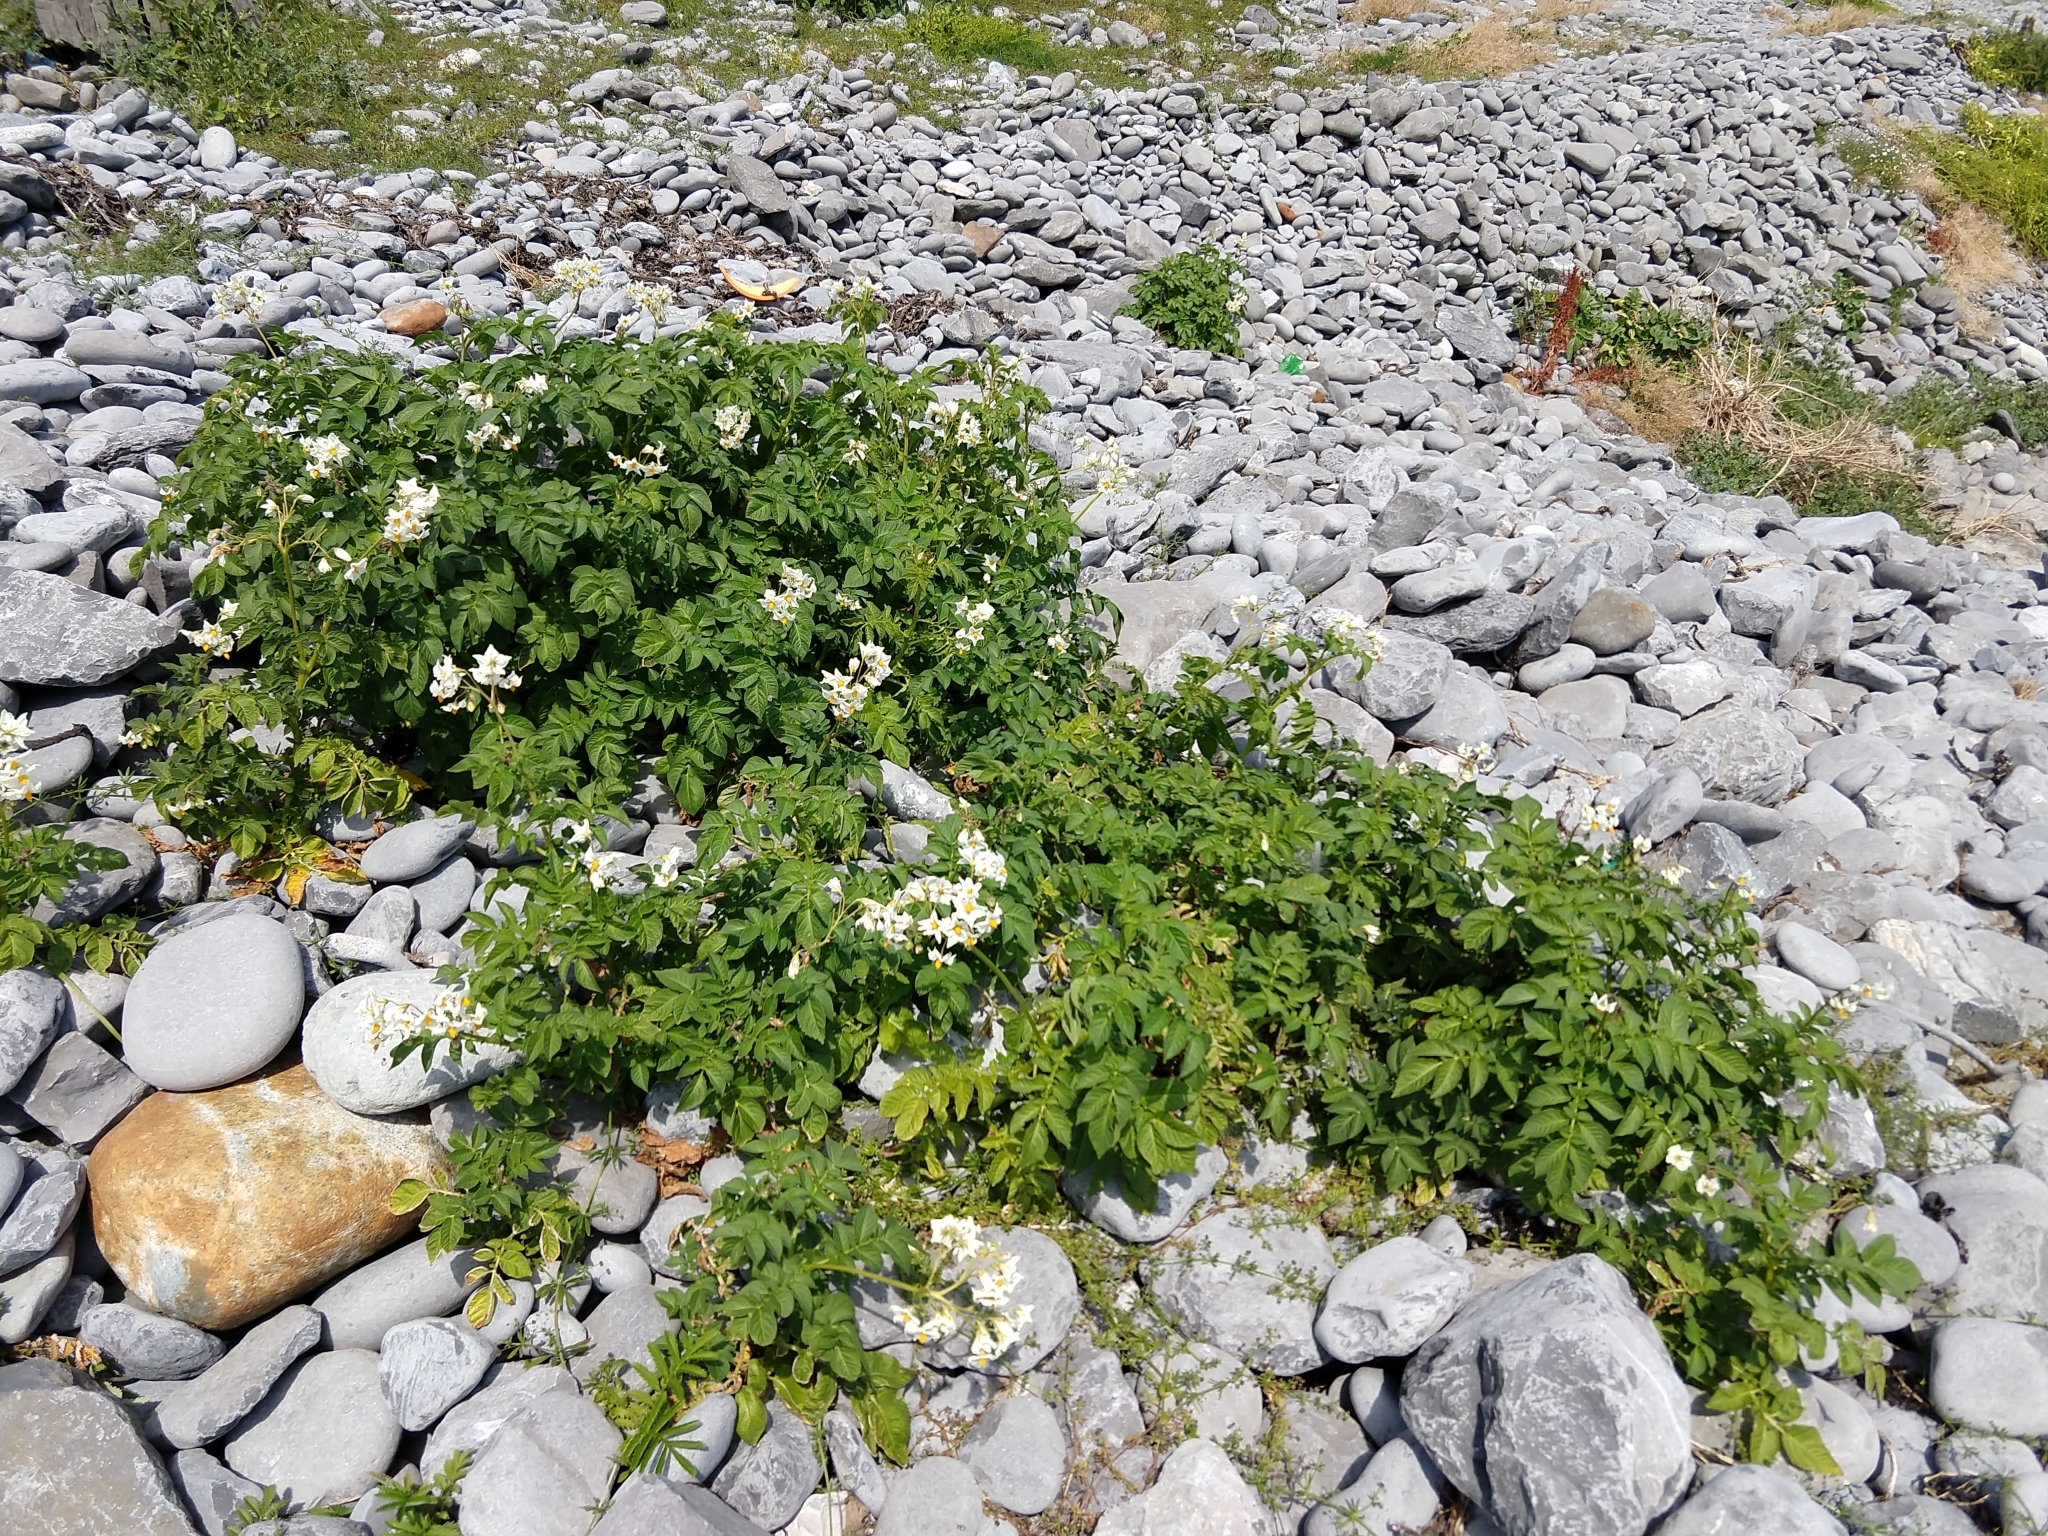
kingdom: Plantae
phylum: Tracheophyta
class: Magnoliopsida
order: Solanales
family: Solanaceae
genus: Solanum
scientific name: Solanum tuberosum
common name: Potato
